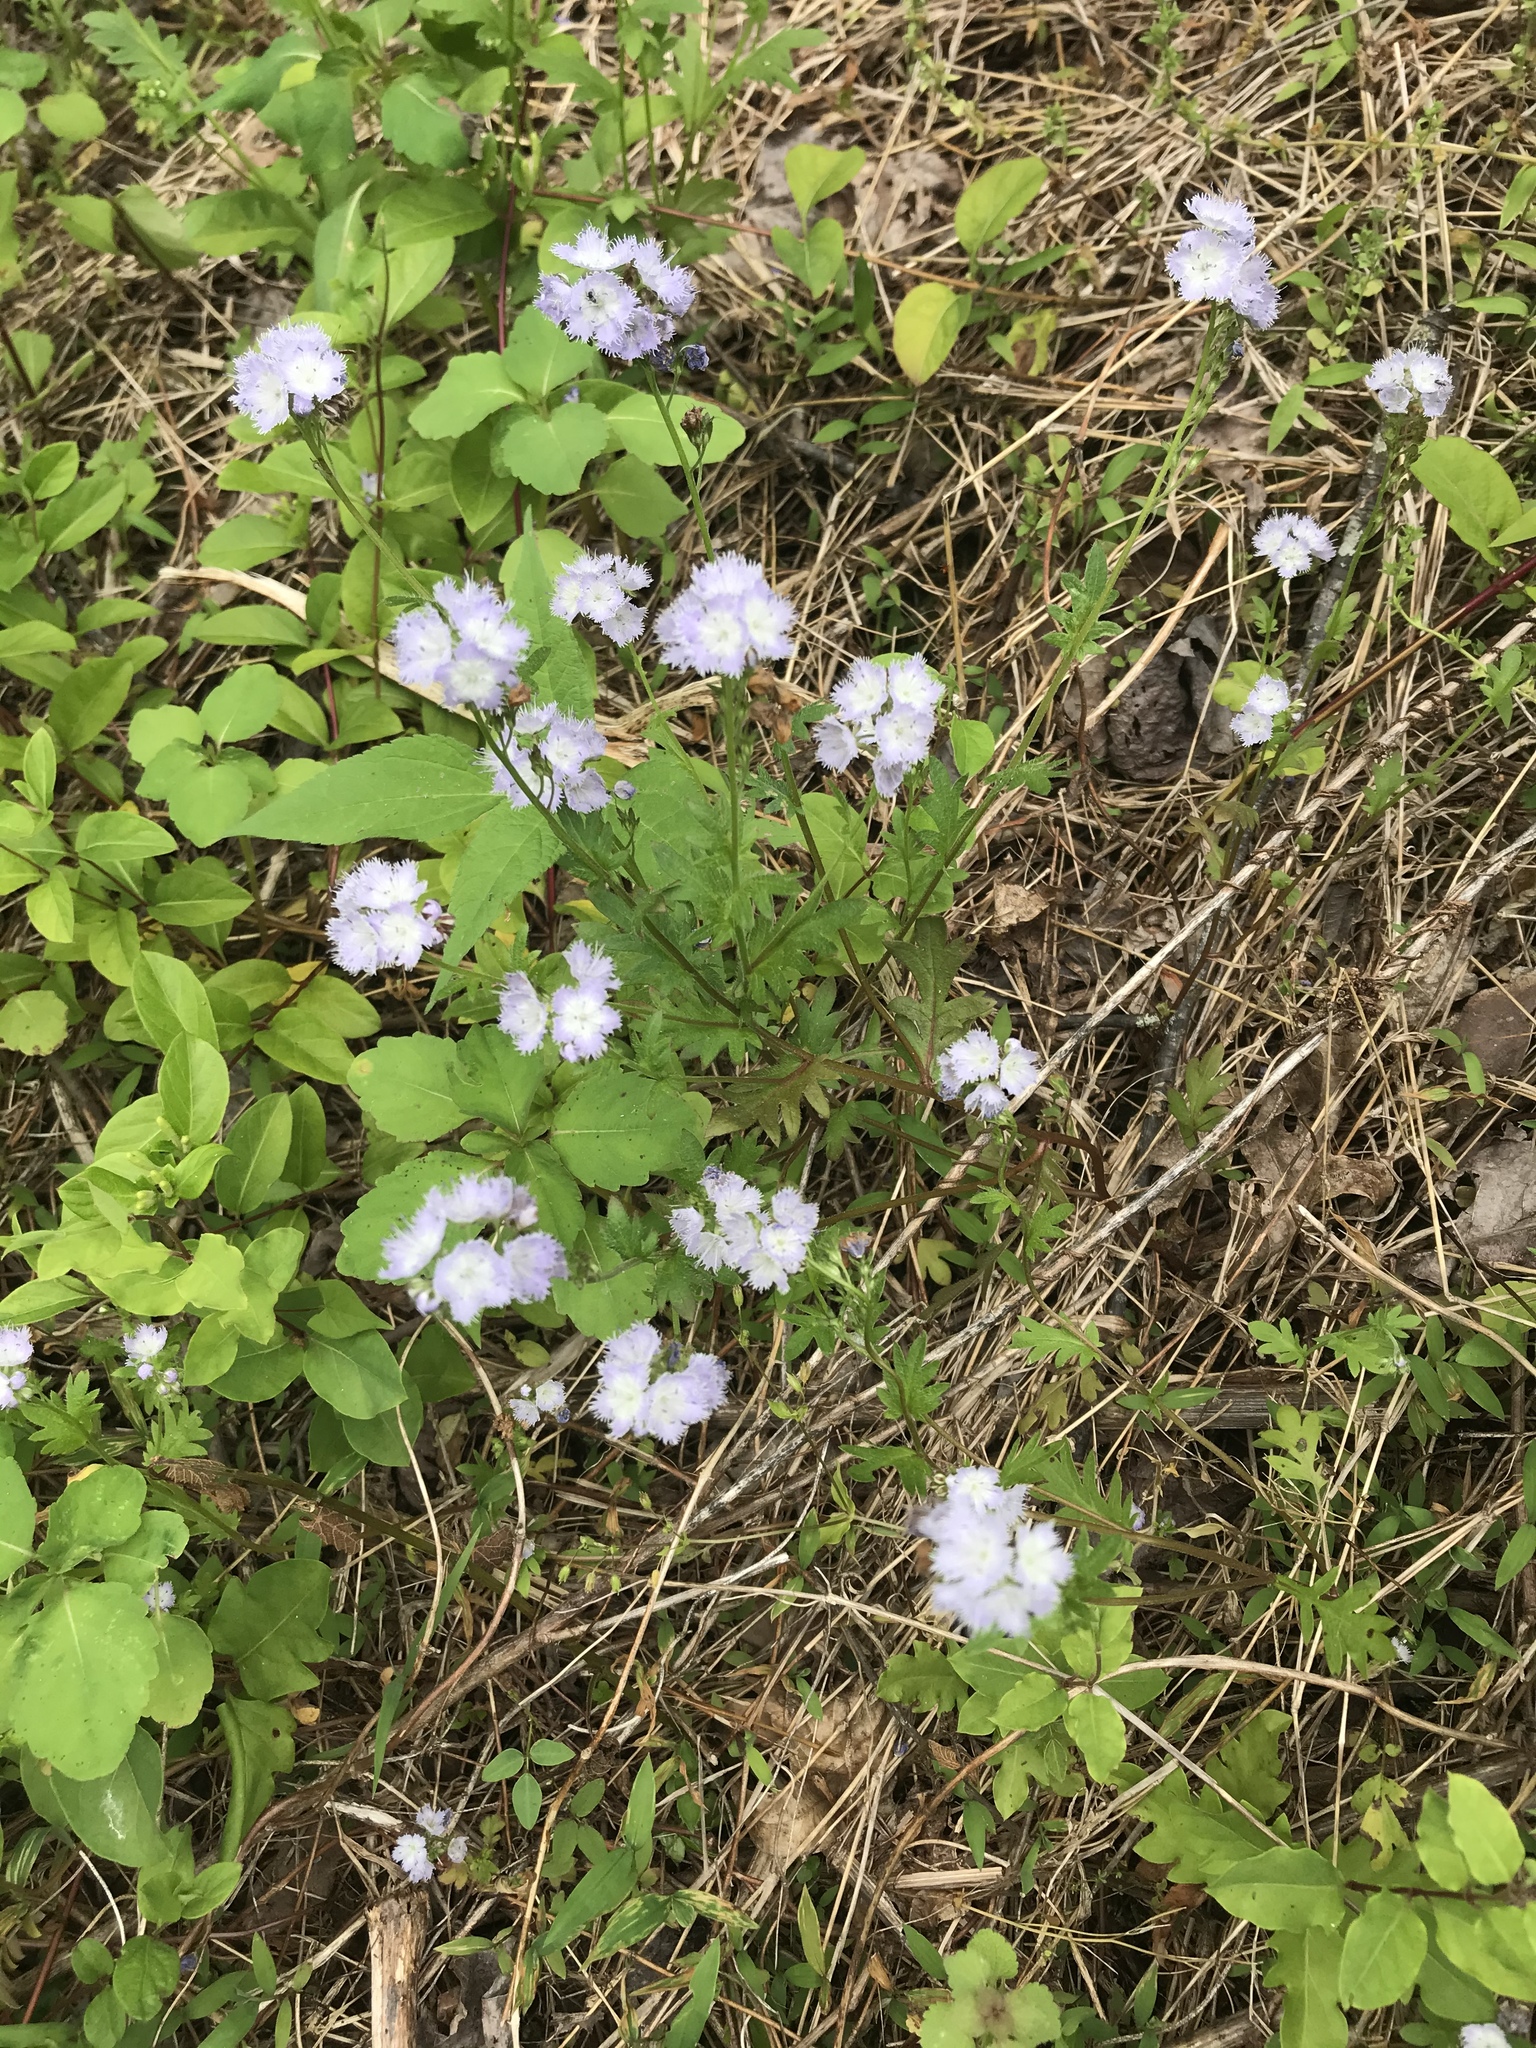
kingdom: Plantae
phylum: Tracheophyta
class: Magnoliopsida
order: Boraginales
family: Hydrophyllaceae
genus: Phacelia
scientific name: Phacelia purshii
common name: Miami-mist
